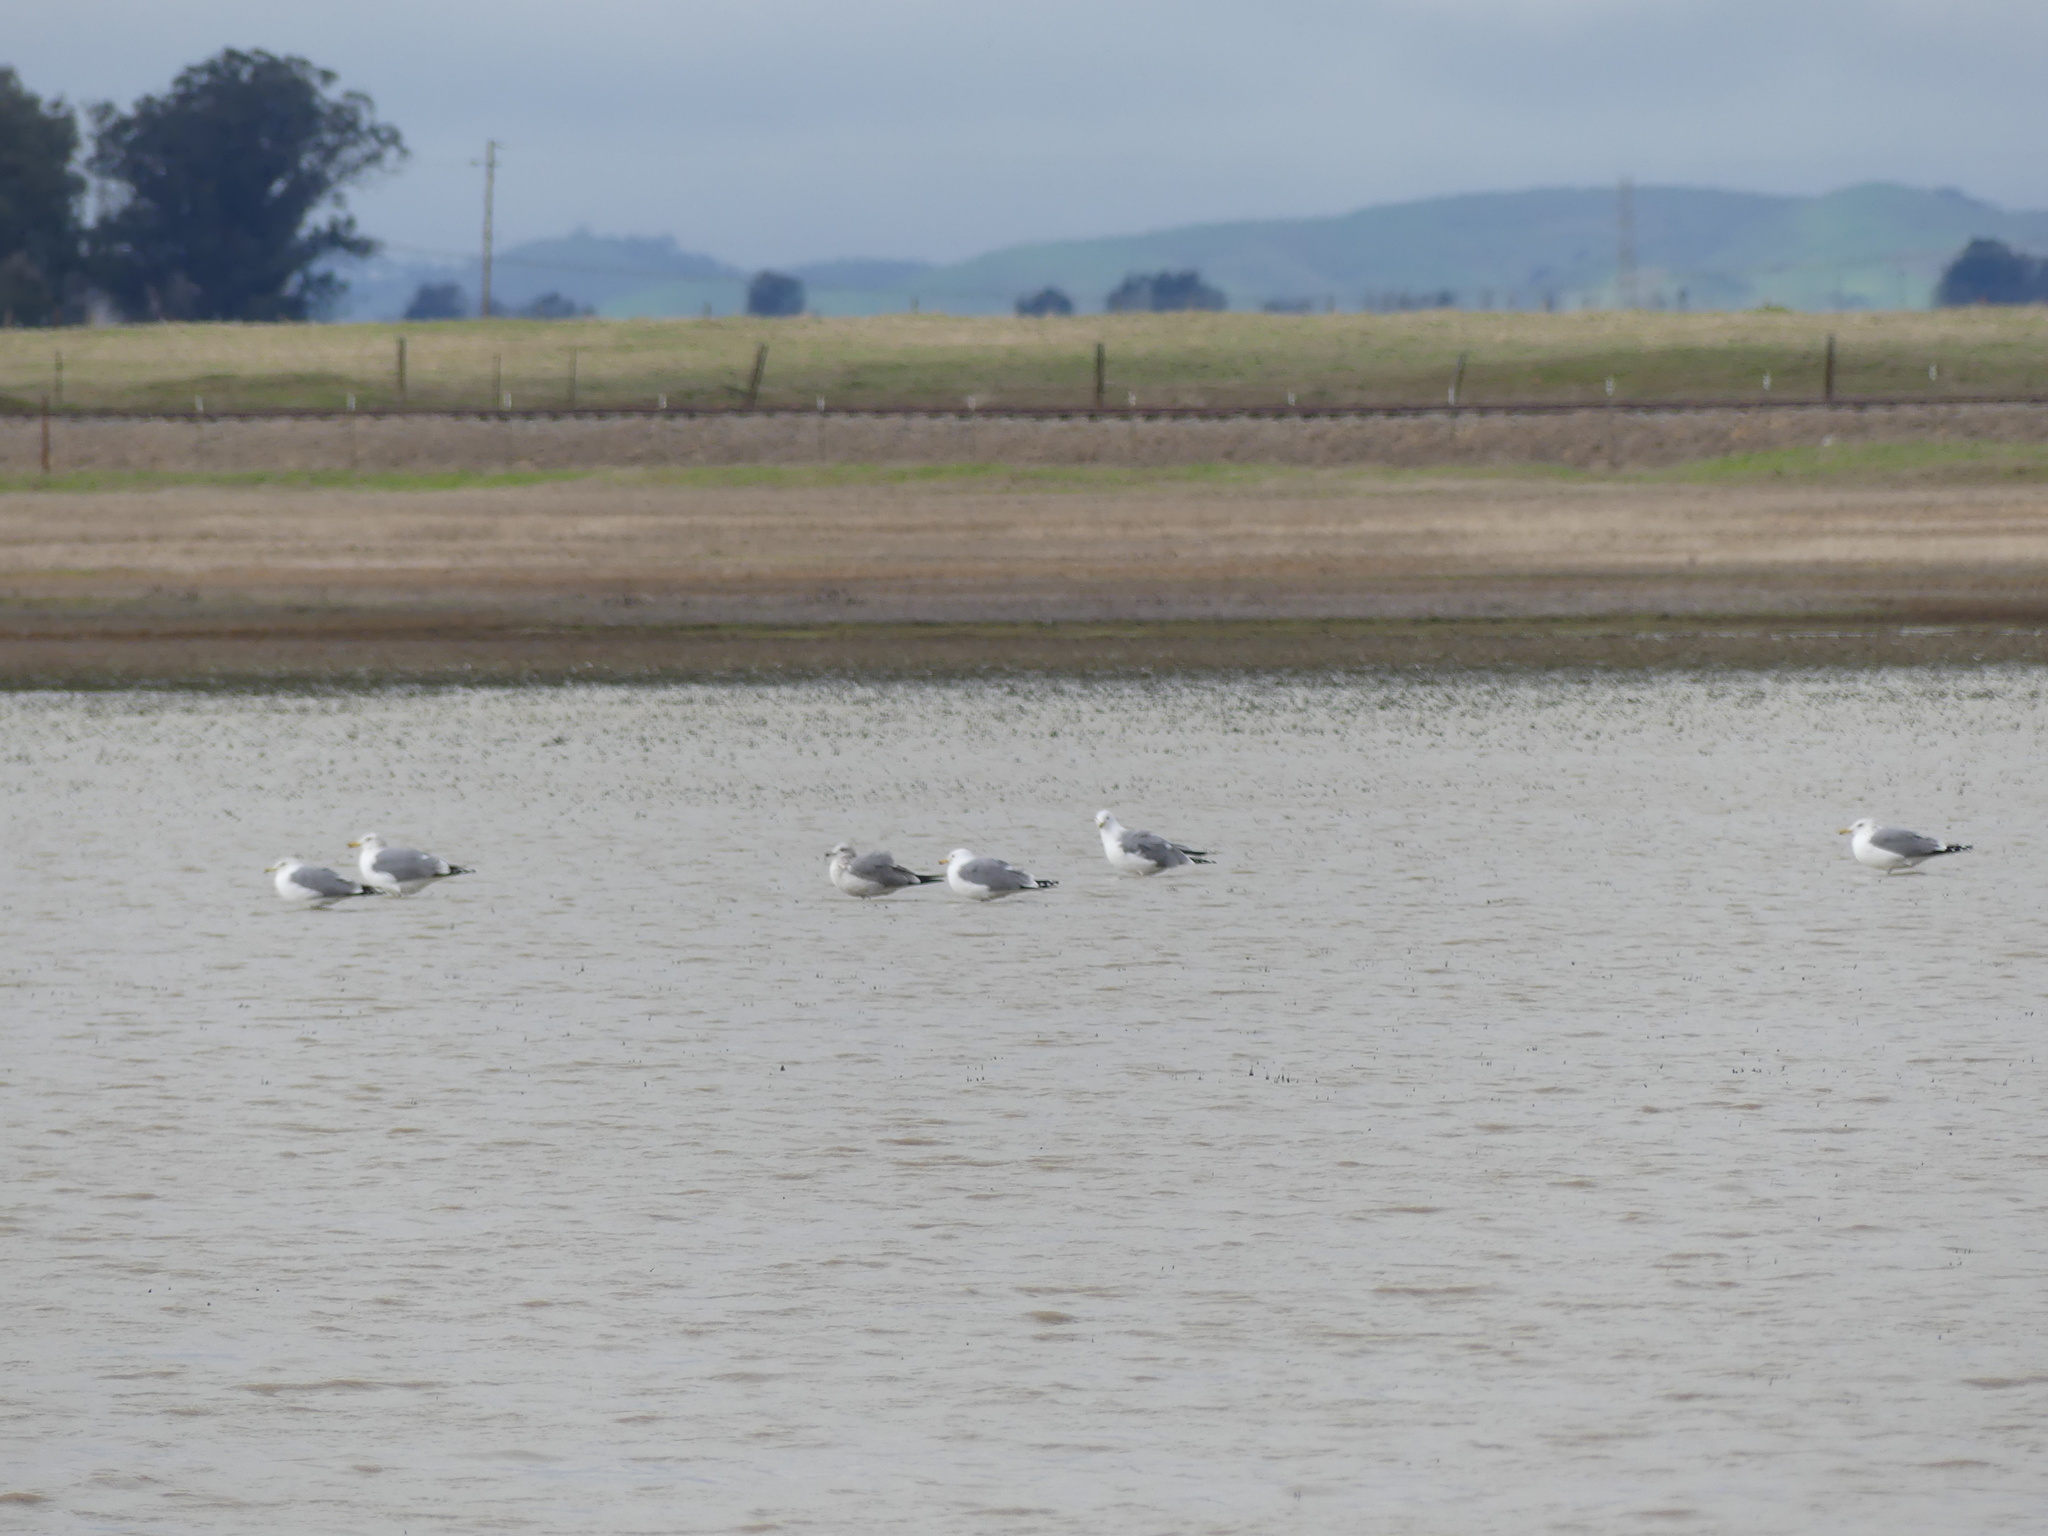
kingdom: Animalia
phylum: Chordata
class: Aves
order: Charadriiformes
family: Laridae
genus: Larus
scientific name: Larus californicus
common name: California gull
